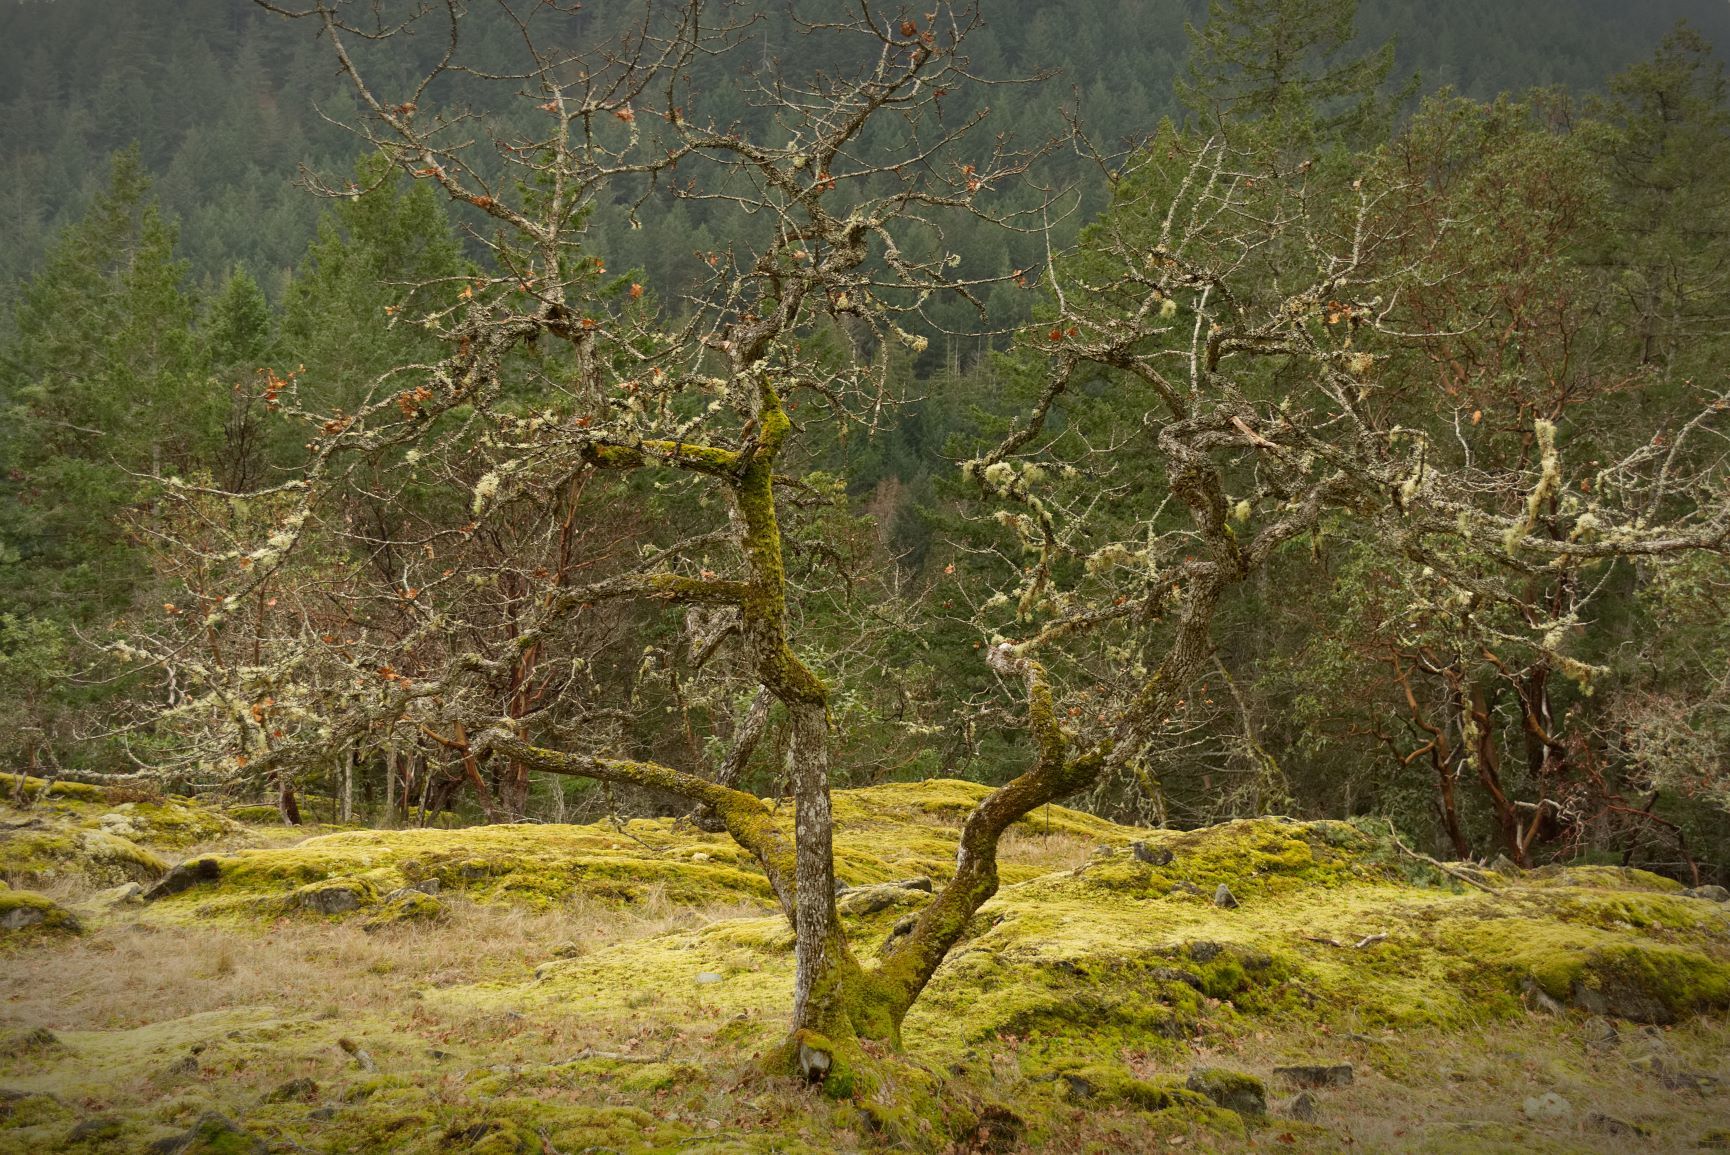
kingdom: Plantae
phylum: Tracheophyta
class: Magnoliopsida
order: Fagales
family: Fagaceae
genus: Quercus
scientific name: Quercus garryana
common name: Garry oak
